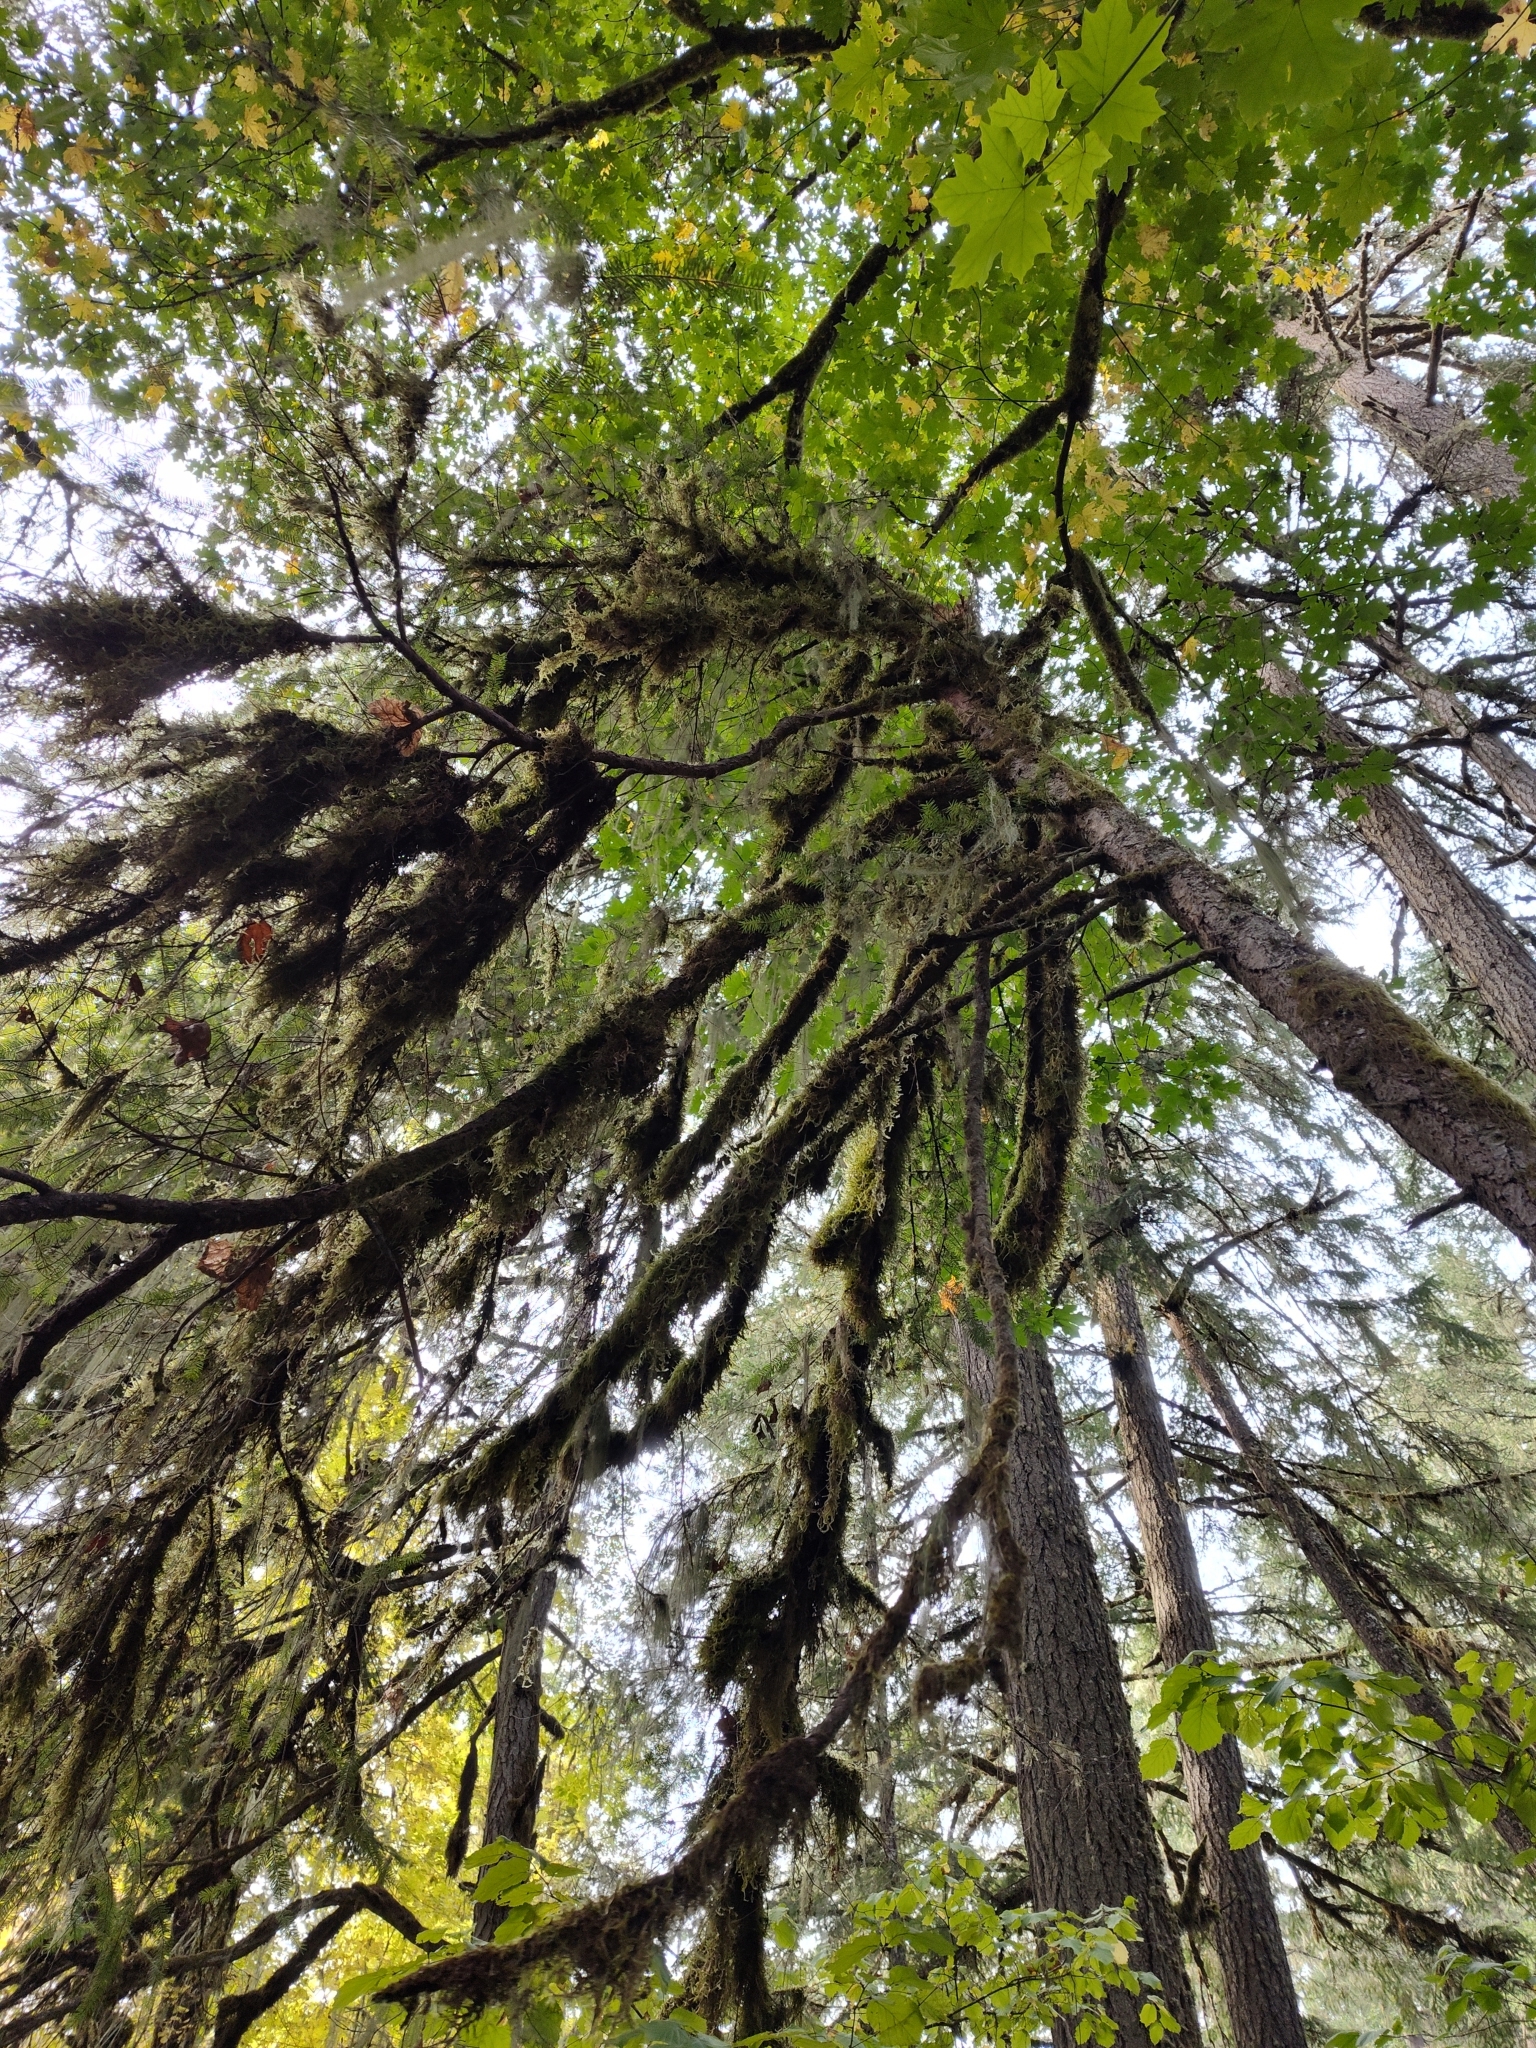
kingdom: Plantae
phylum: Tracheophyta
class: Pinopsida
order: Pinales
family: Pinaceae
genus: Pseudotsuga
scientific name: Pseudotsuga menziesii
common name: Douglas fir
